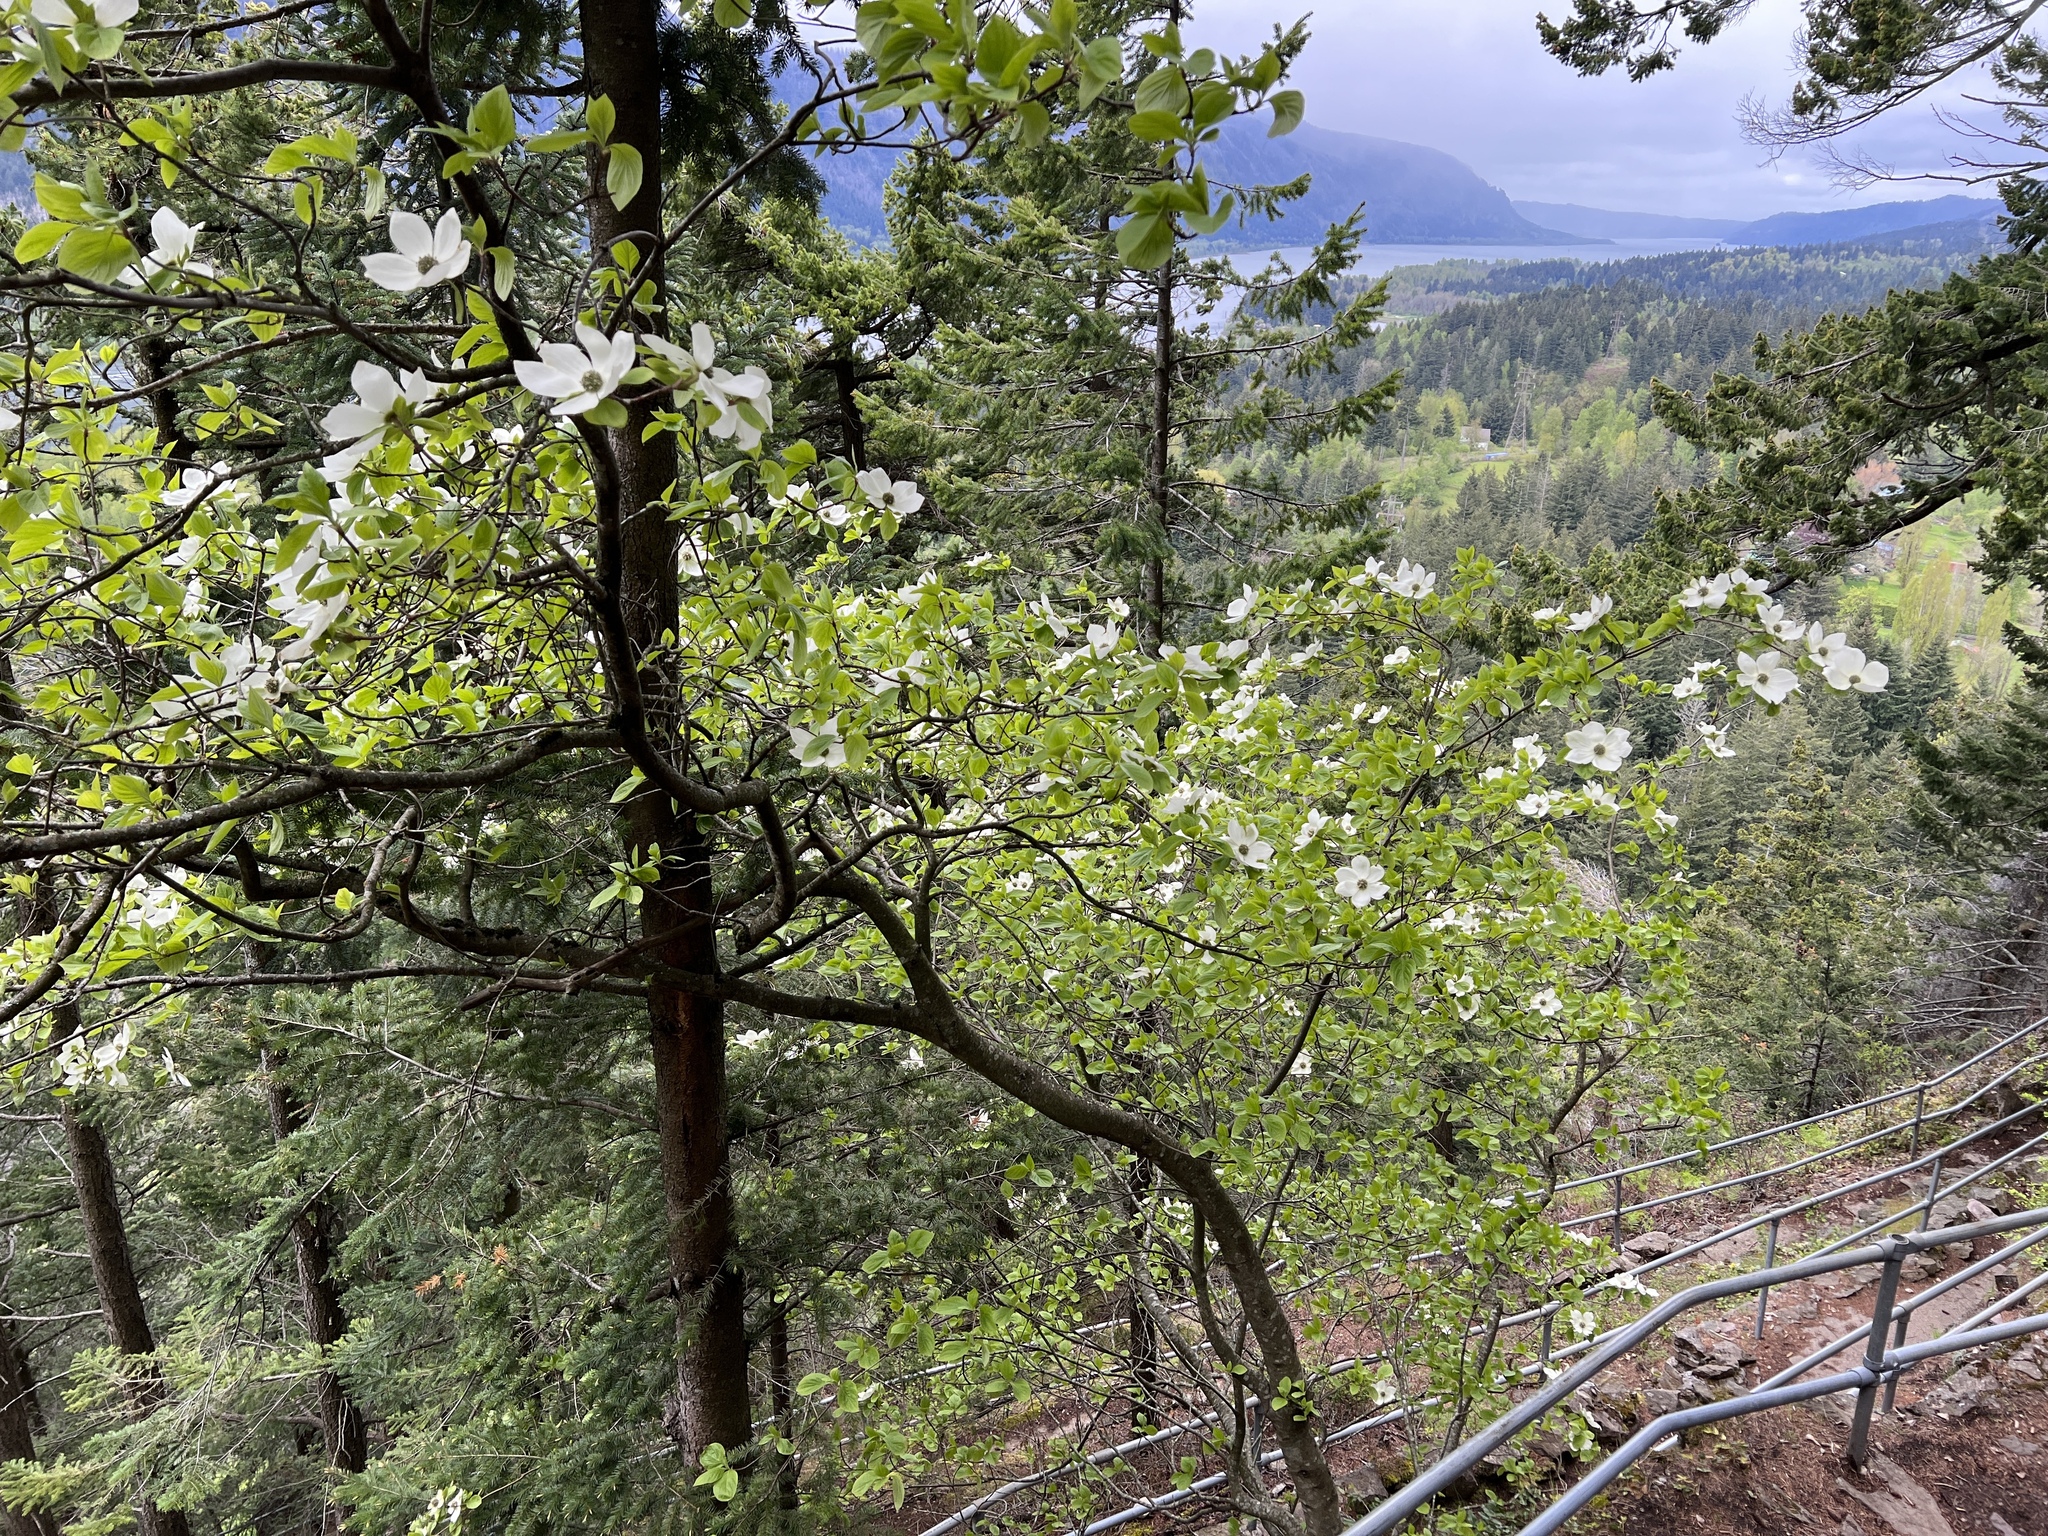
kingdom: Plantae
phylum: Tracheophyta
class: Magnoliopsida
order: Cornales
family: Cornaceae
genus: Cornus
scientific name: Cornus nuttallii
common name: Pacific dogwood
